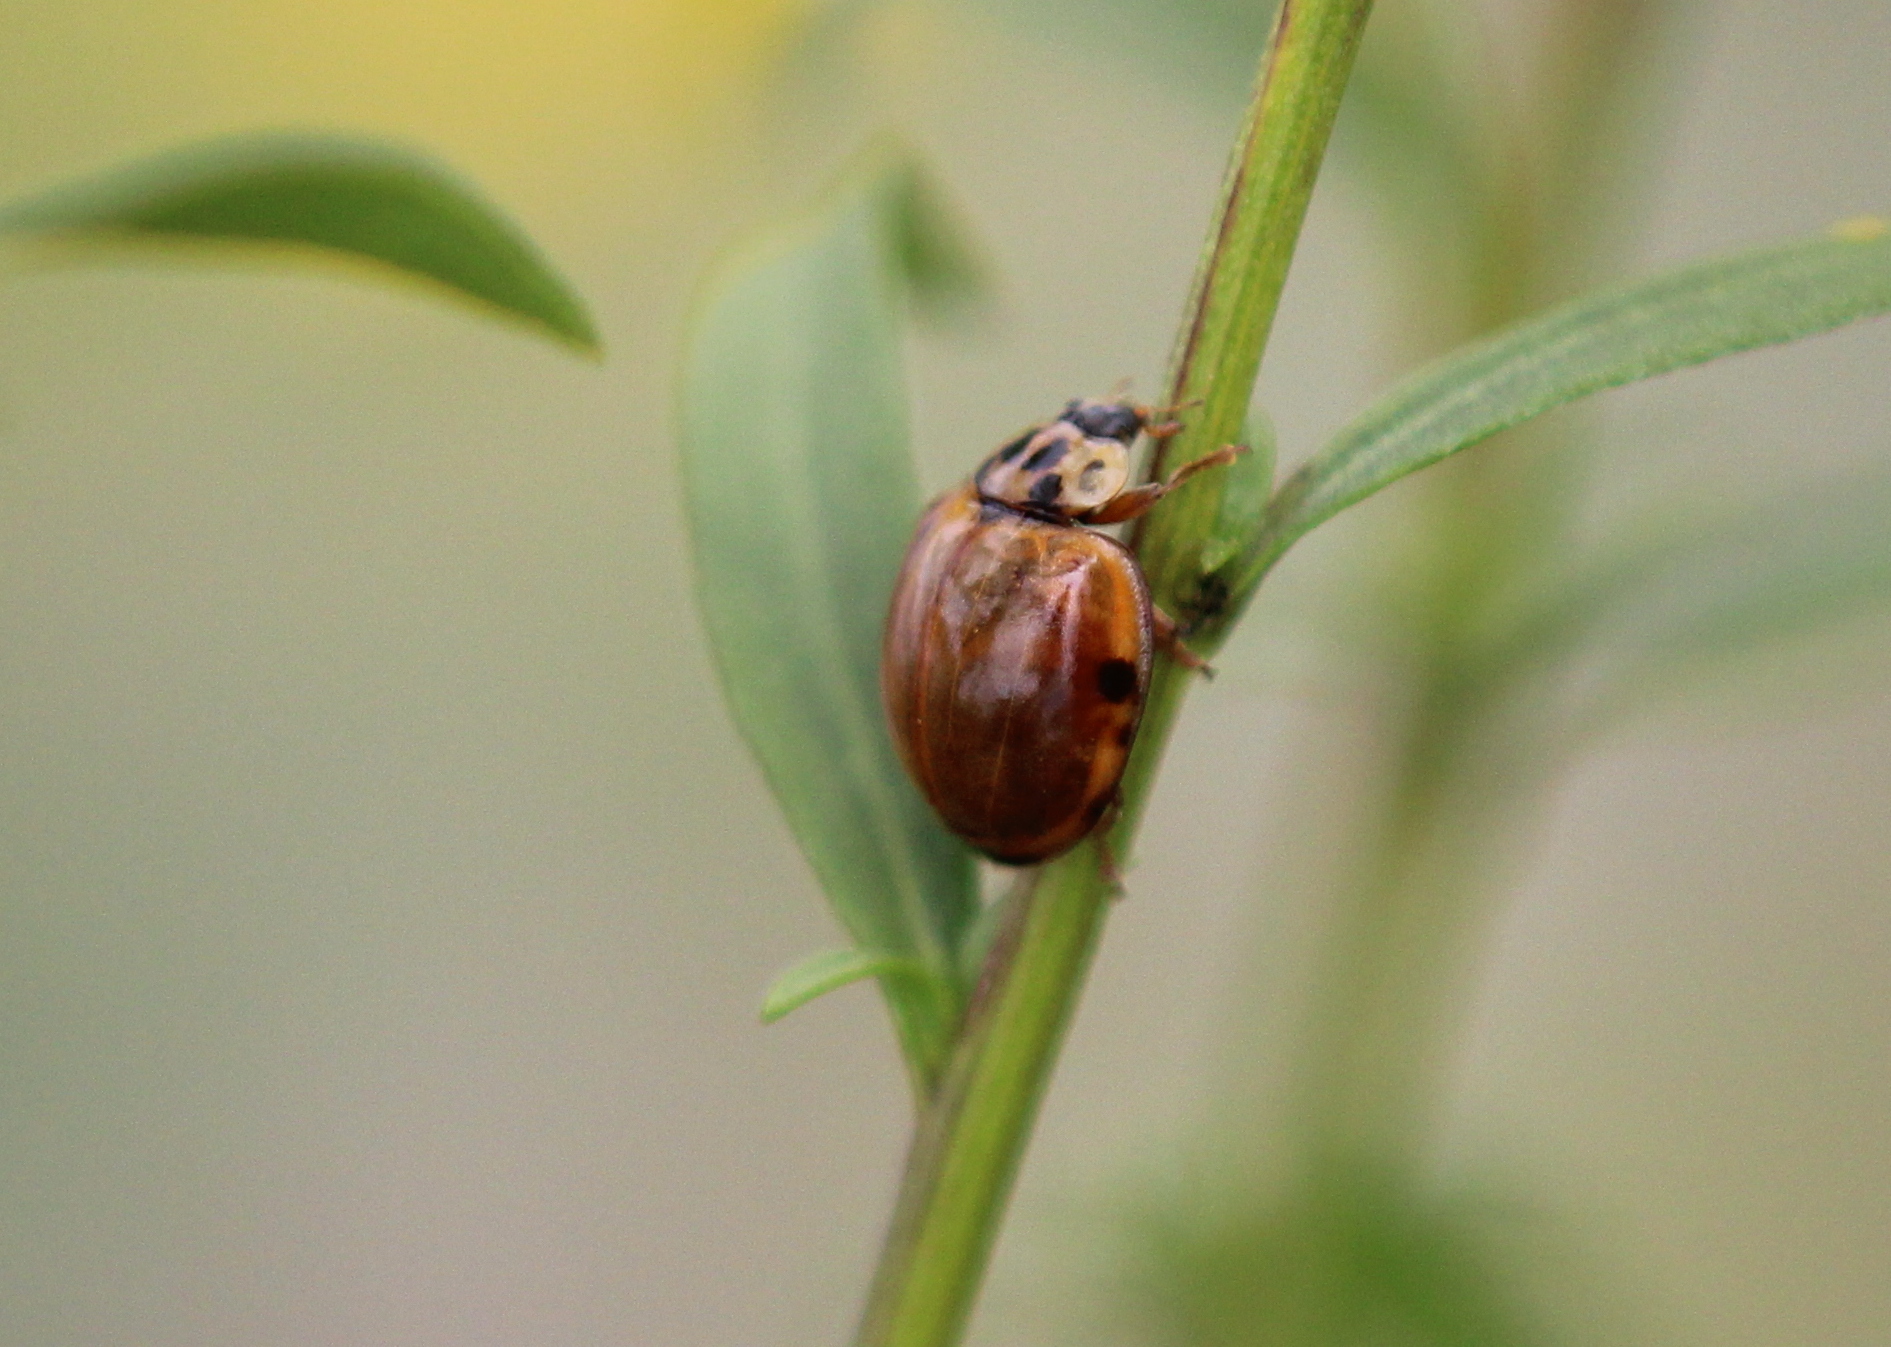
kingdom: Animalia
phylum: Arthropoda
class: Insecta
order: Coleoptera
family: Coccinellidae
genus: Harmonia
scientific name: Harmonia axyridis
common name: Harlequin ladybird
